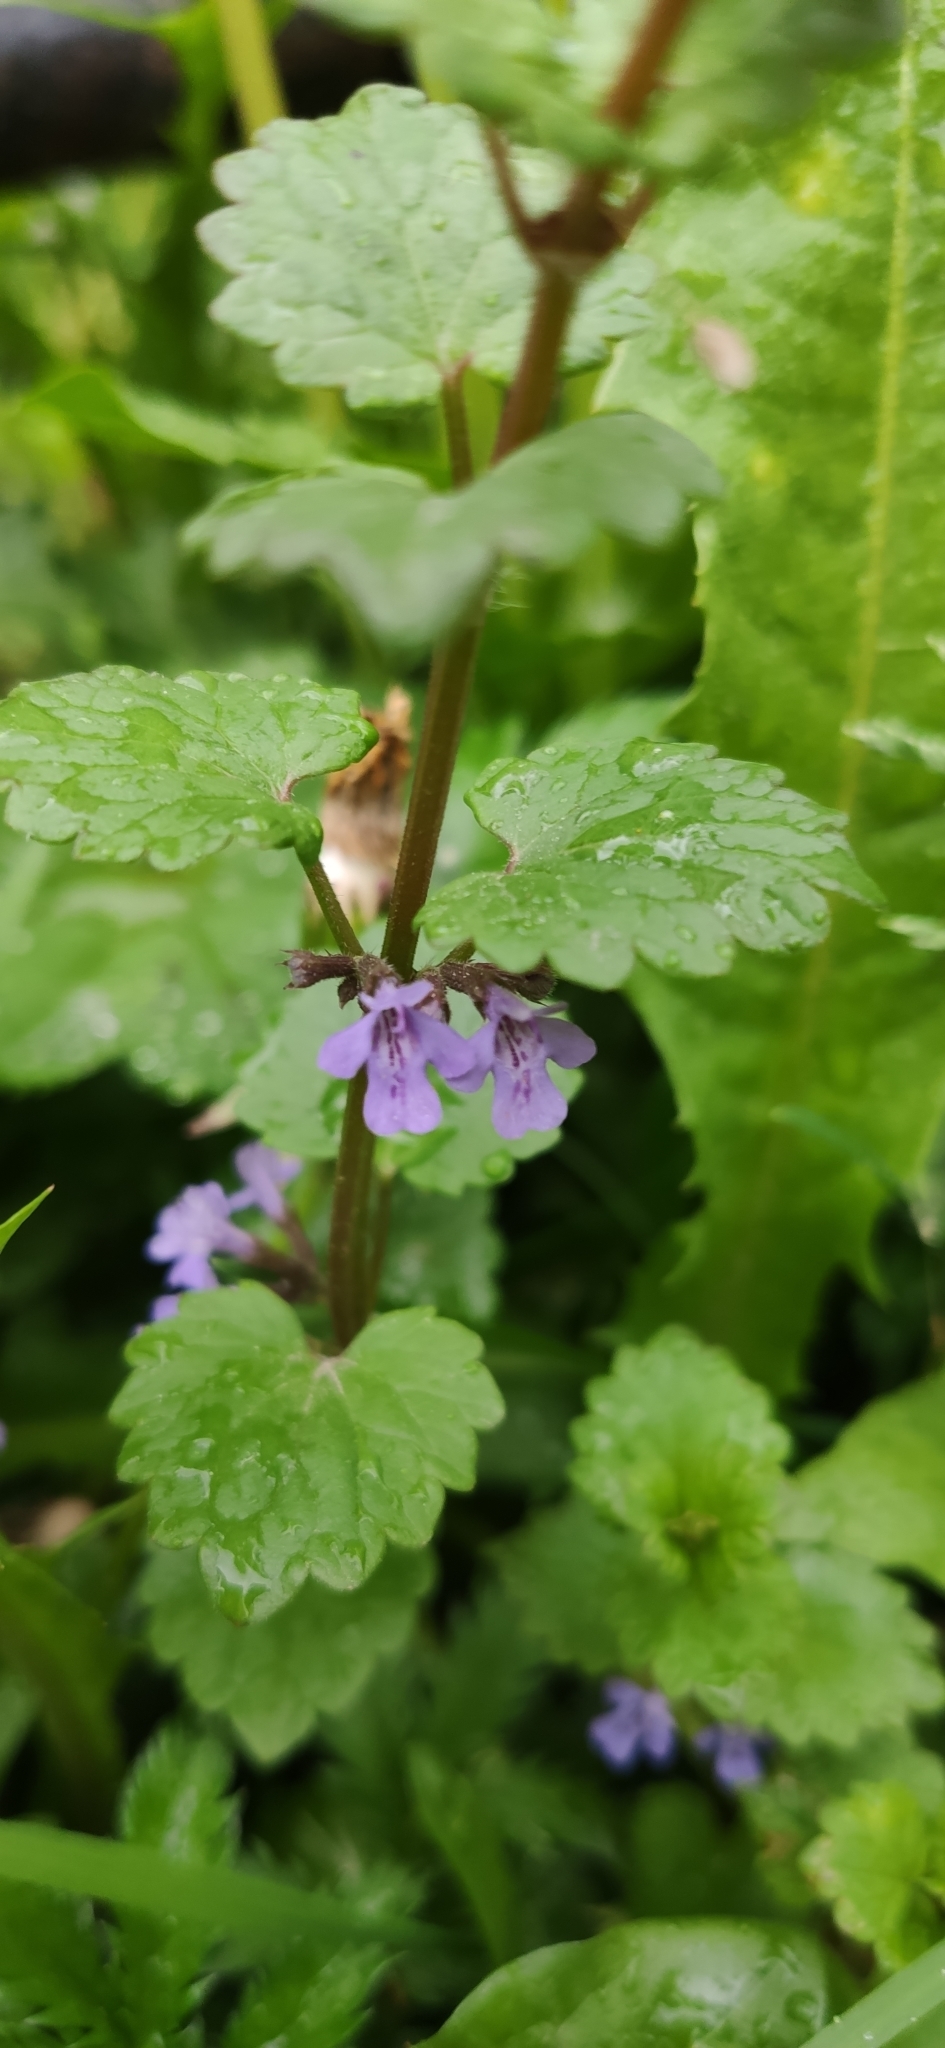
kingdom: Plantae
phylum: Tracheophyta
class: Magnoliopsida
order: Lamiales
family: Lamiaceae
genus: Glechoma
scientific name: Glechoma hederacea
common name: Ground ivy
